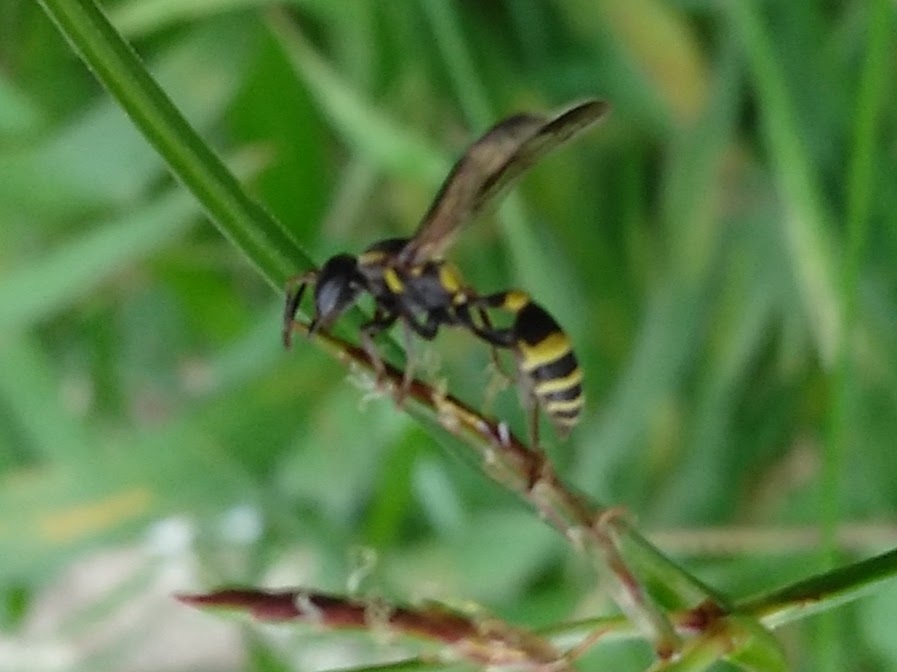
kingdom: Animalia
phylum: Arthropoda
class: Insecta
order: Hymenoptera
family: Vespidae
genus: Myrapetra
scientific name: Myrapetra
